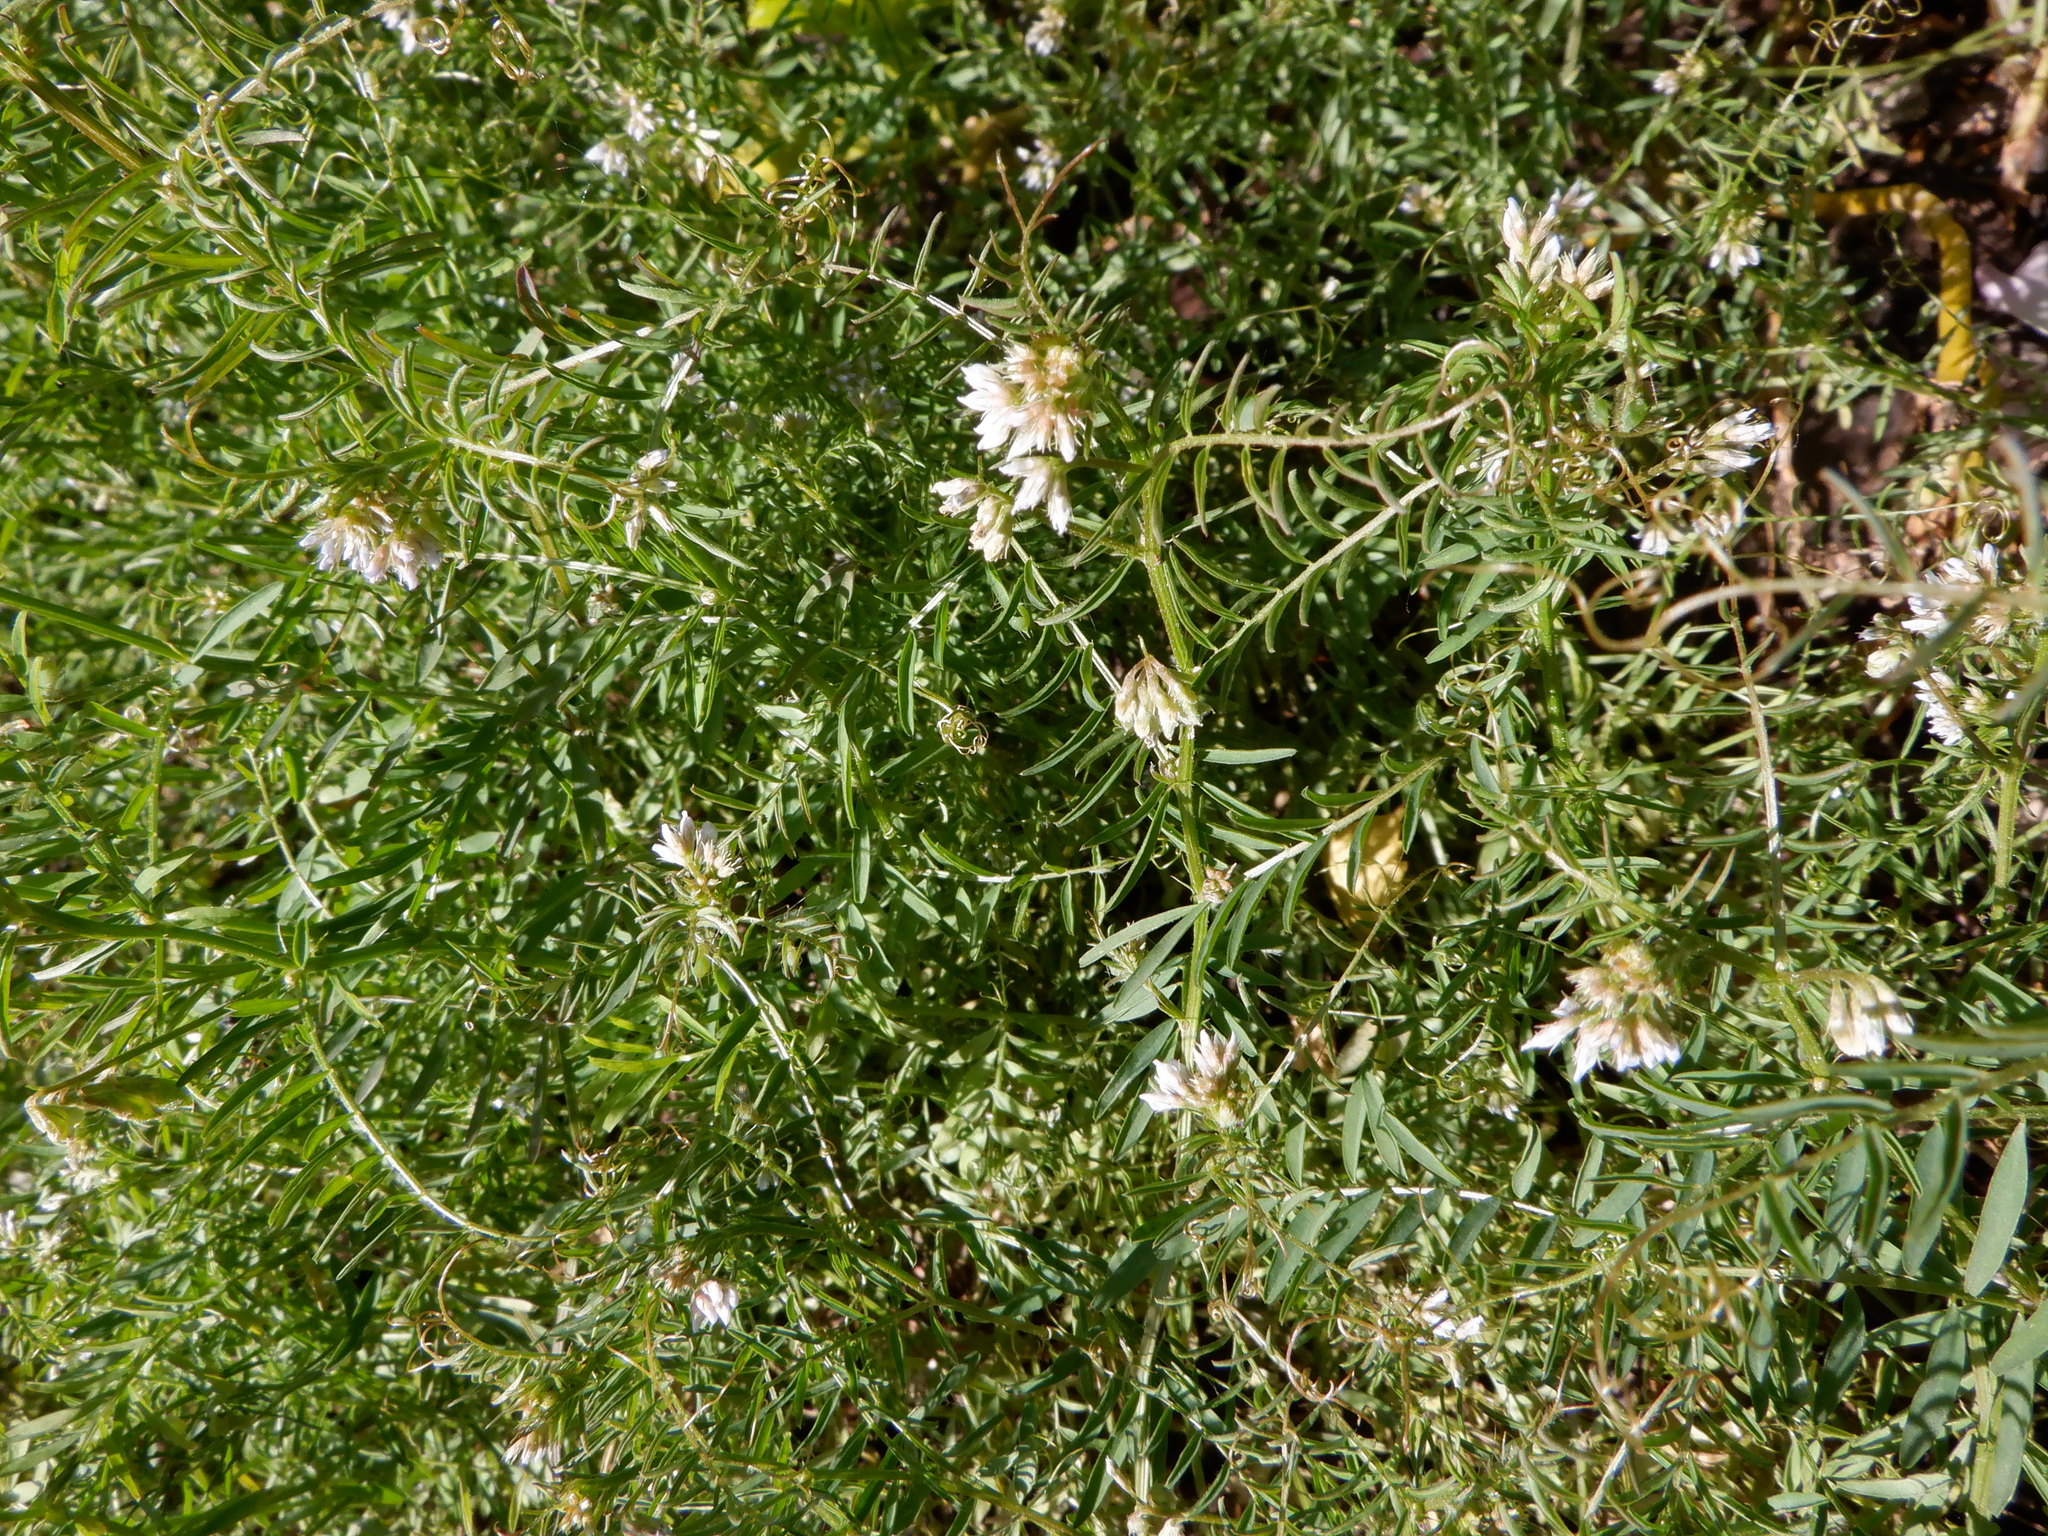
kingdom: Plantae
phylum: Tracheophyta
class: Magnoliopsida
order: Fabales
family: Fabaceae
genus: Vicia
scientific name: Vicia hirsuta
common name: Tiny vetch
